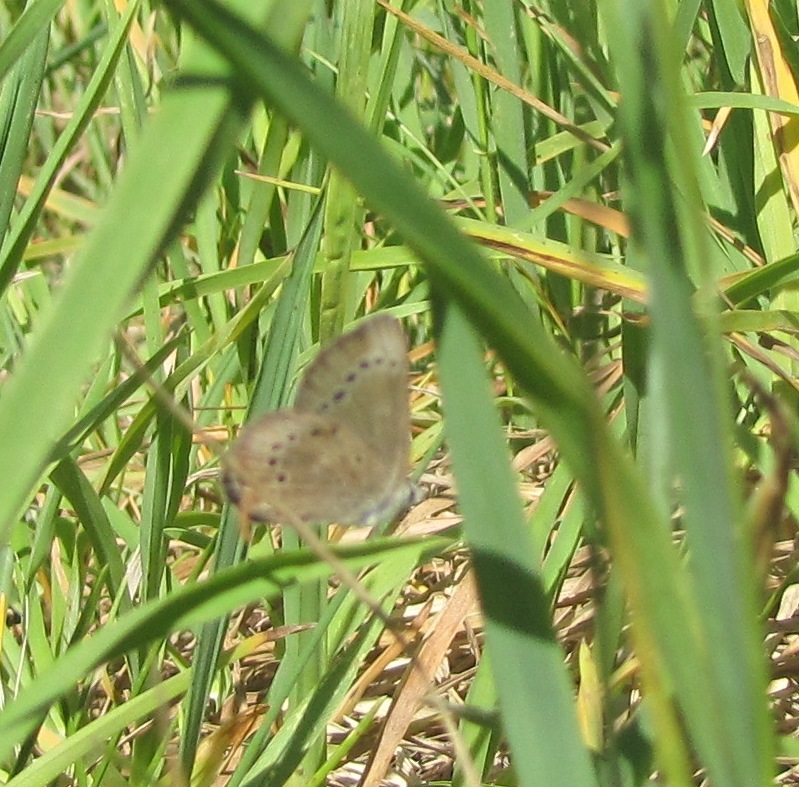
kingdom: Animalia
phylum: Arthropoda
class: Insecta
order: Lepidoptera
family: Lycaenidae
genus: Glaucopsyche
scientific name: Glaucopsyche lygdamus
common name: Silvery blue
